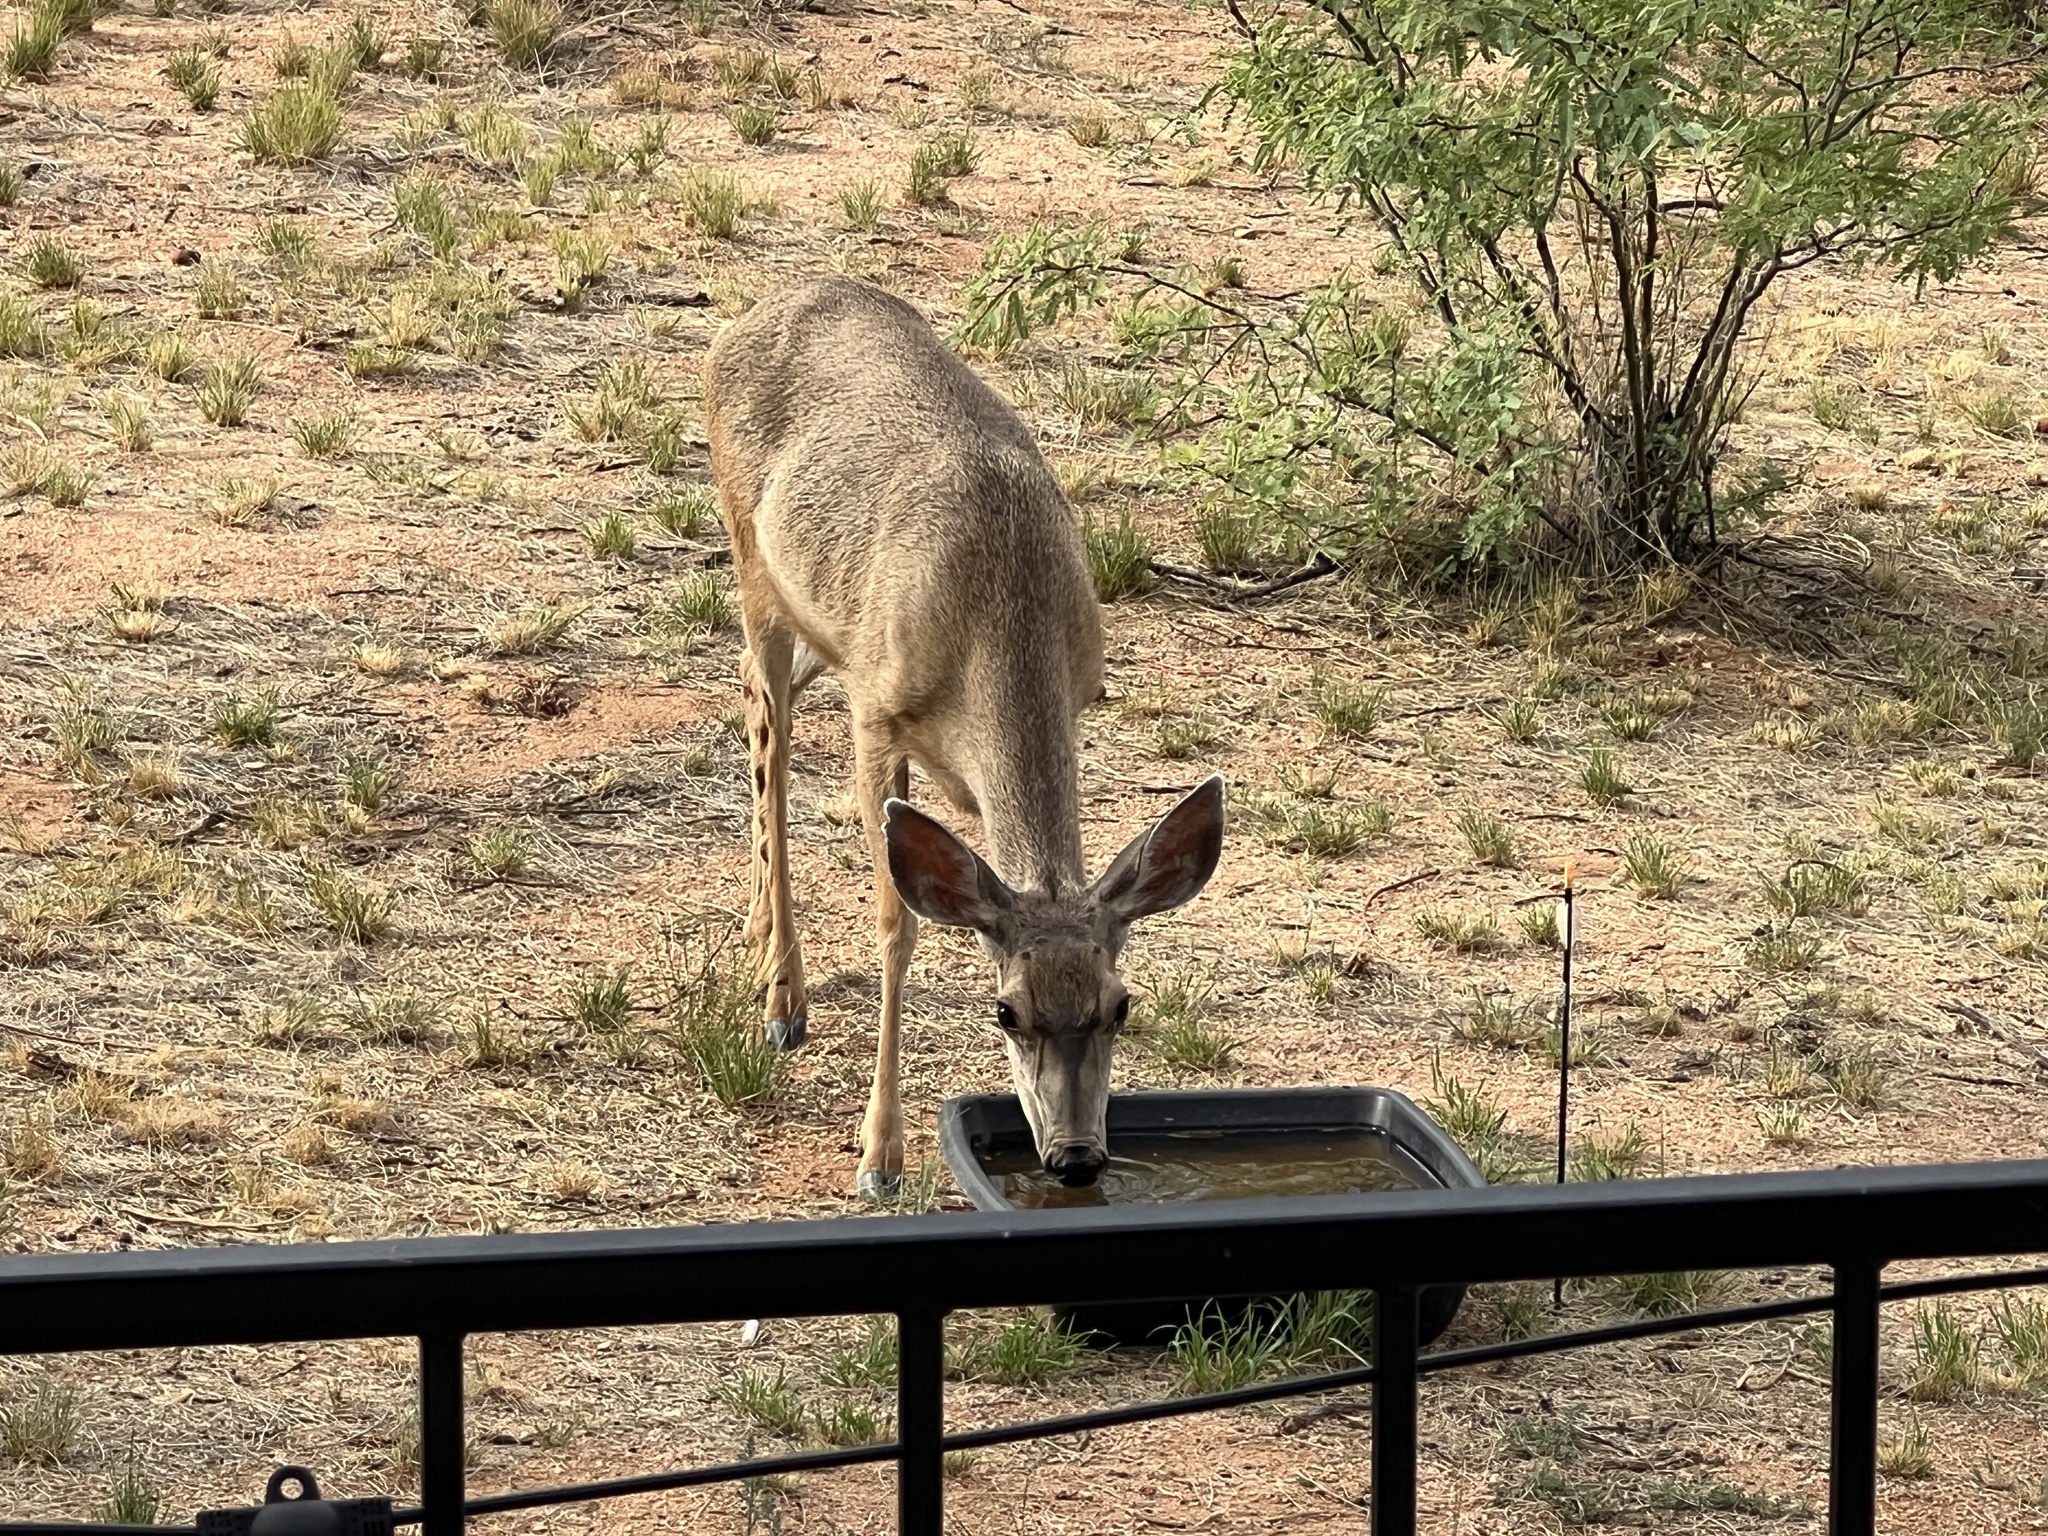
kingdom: Animalia
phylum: Chordata
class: Mammalia
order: Artiodactyla
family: Cervidae
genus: Odocoileus
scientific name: Odocoileus hemionus
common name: Mule deer
